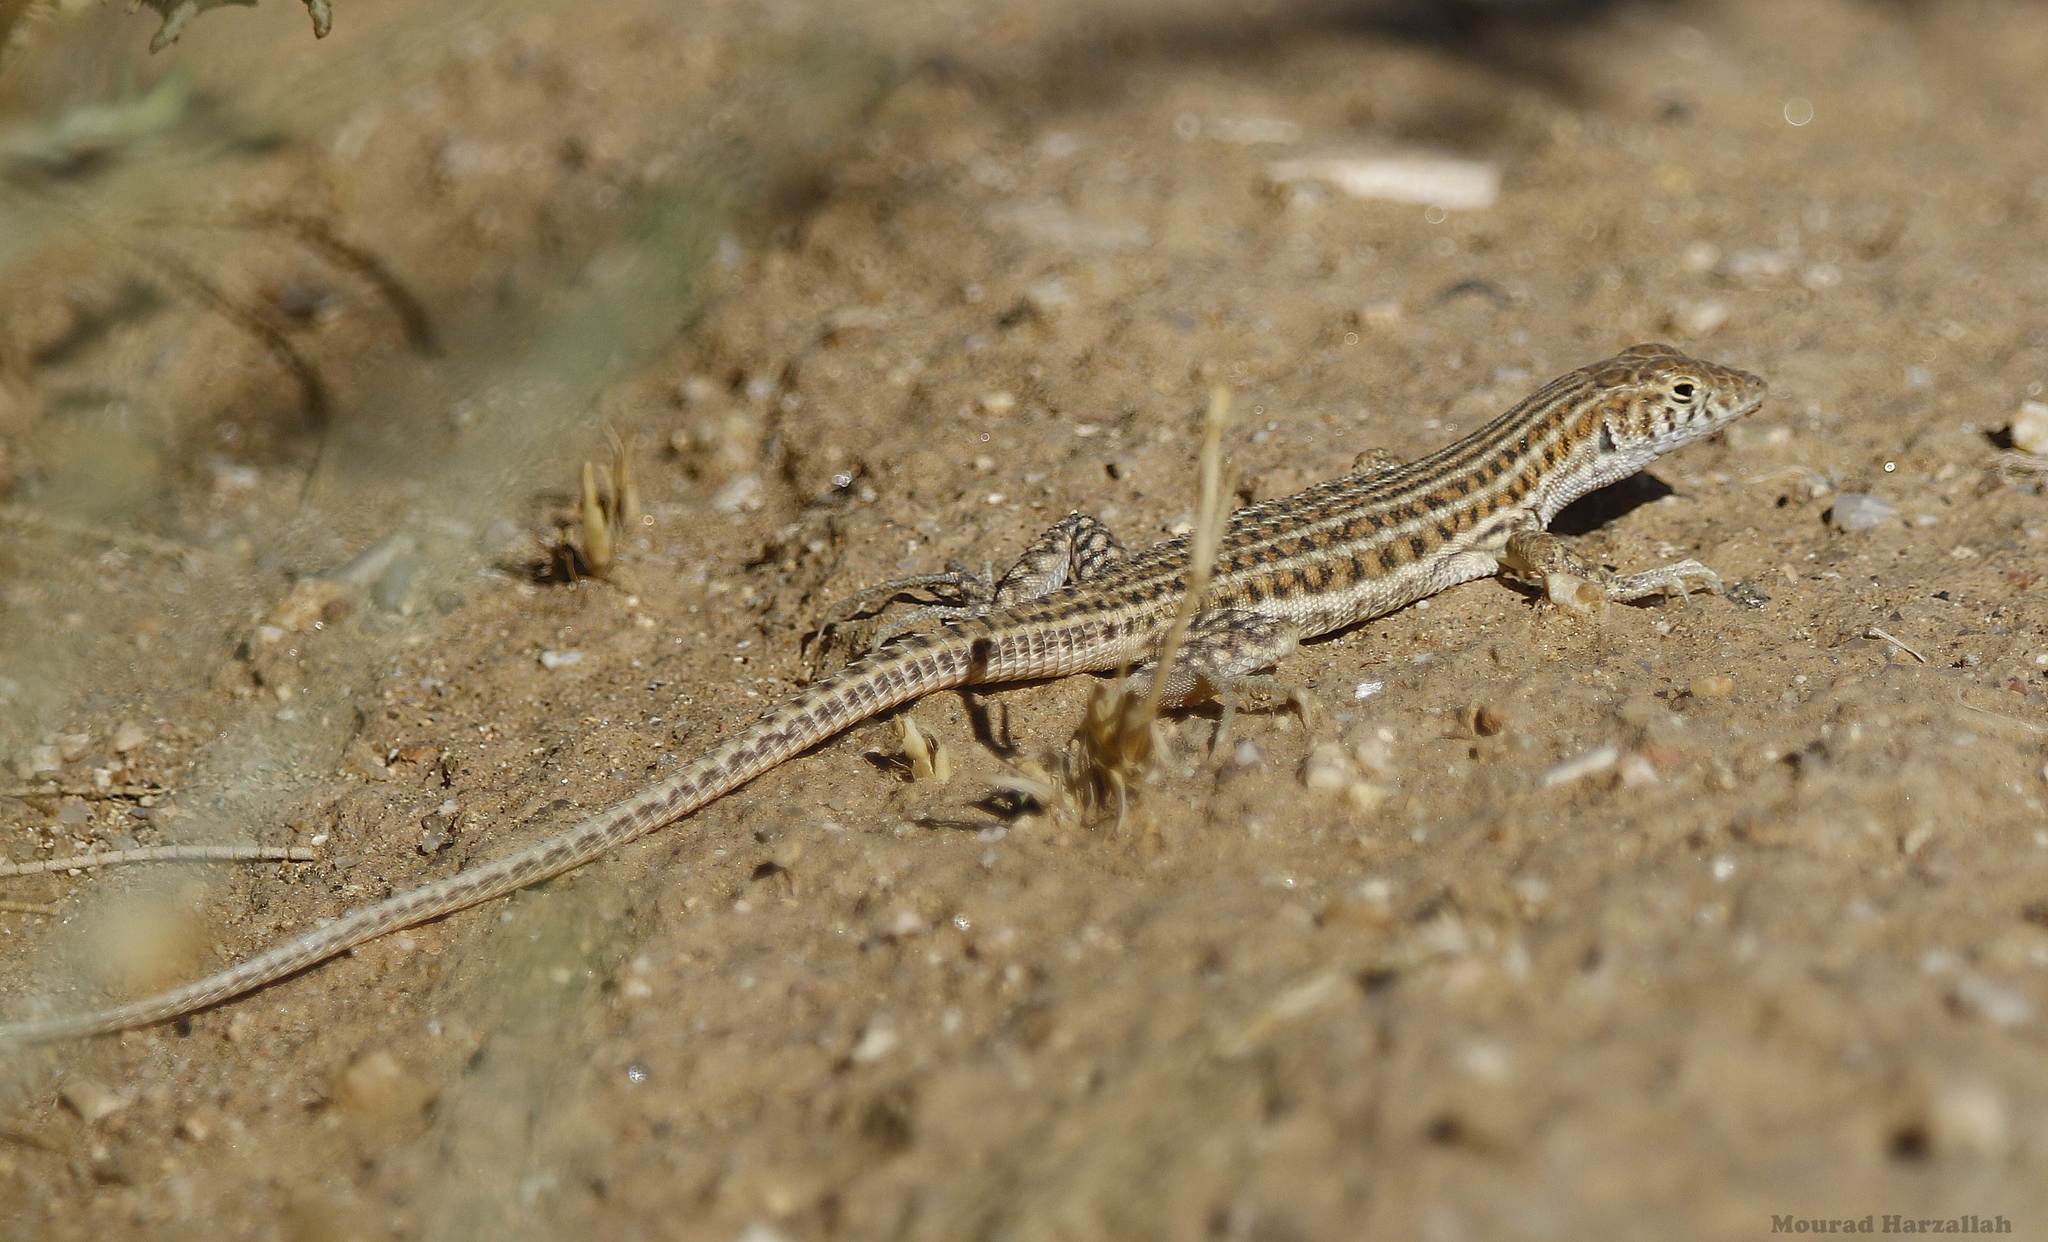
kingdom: Animalia
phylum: Chordata
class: Squamata
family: Lacertidae
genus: Acanthodactylus
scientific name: Acanthodactylus boskianus
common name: Bosc’s fringe-toed lizard
